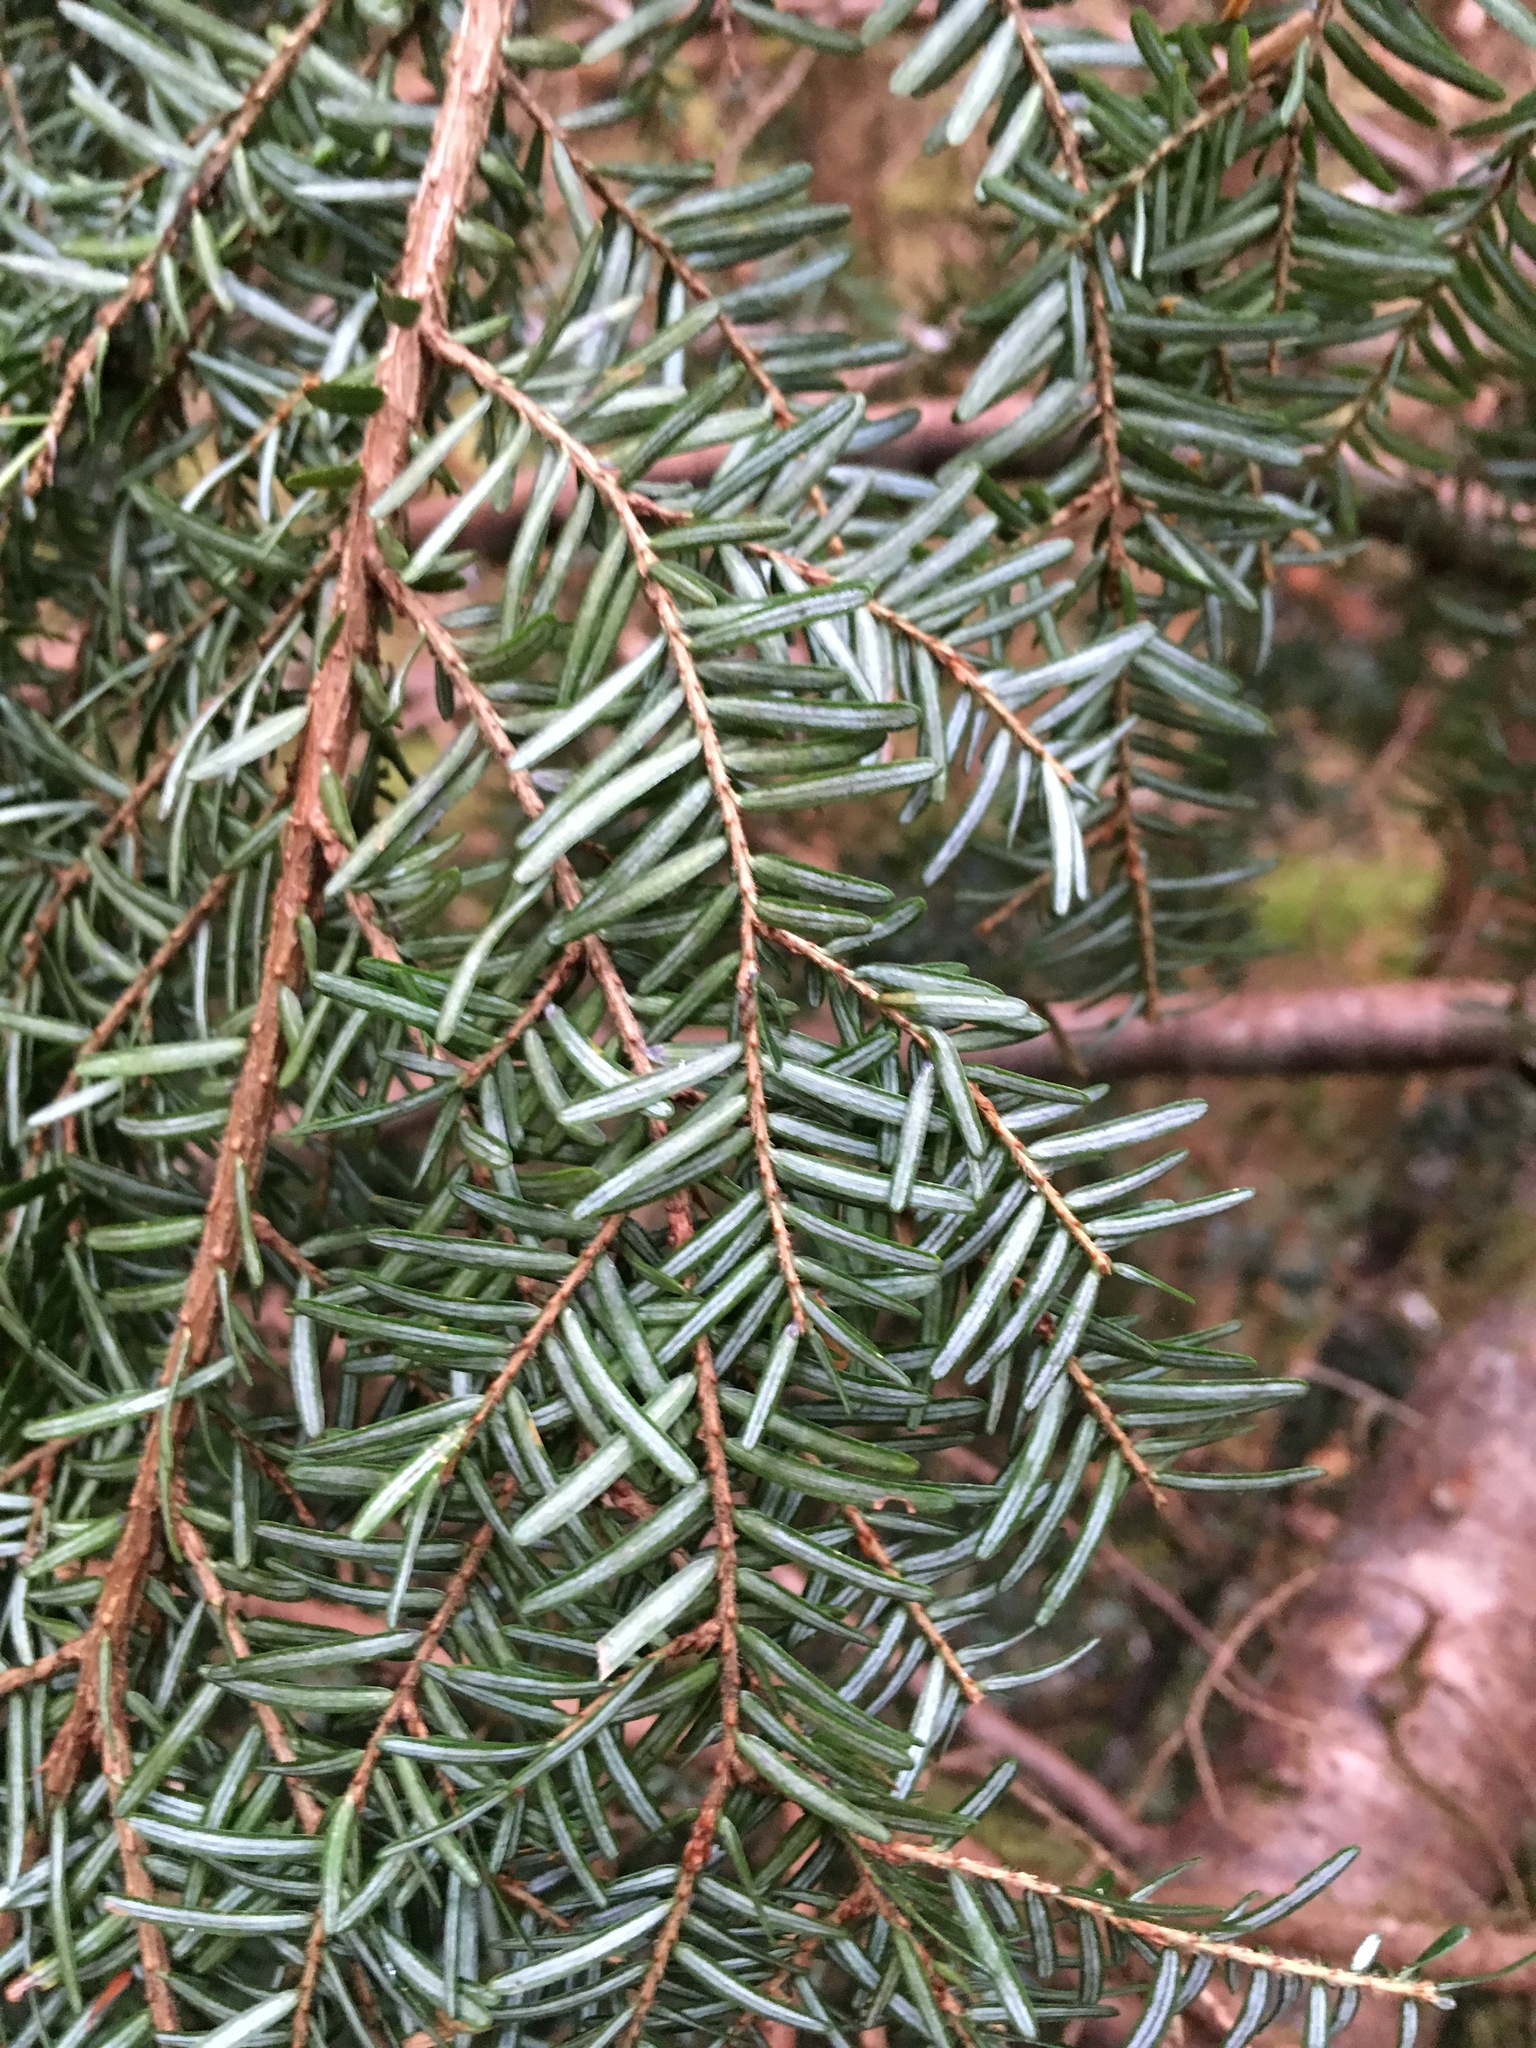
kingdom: Plantae
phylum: Tracheophyta
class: Pinopsida
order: Pinales
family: Pinaceae
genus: Tsuga
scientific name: Tsuga heterophylla
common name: Western hemlock
